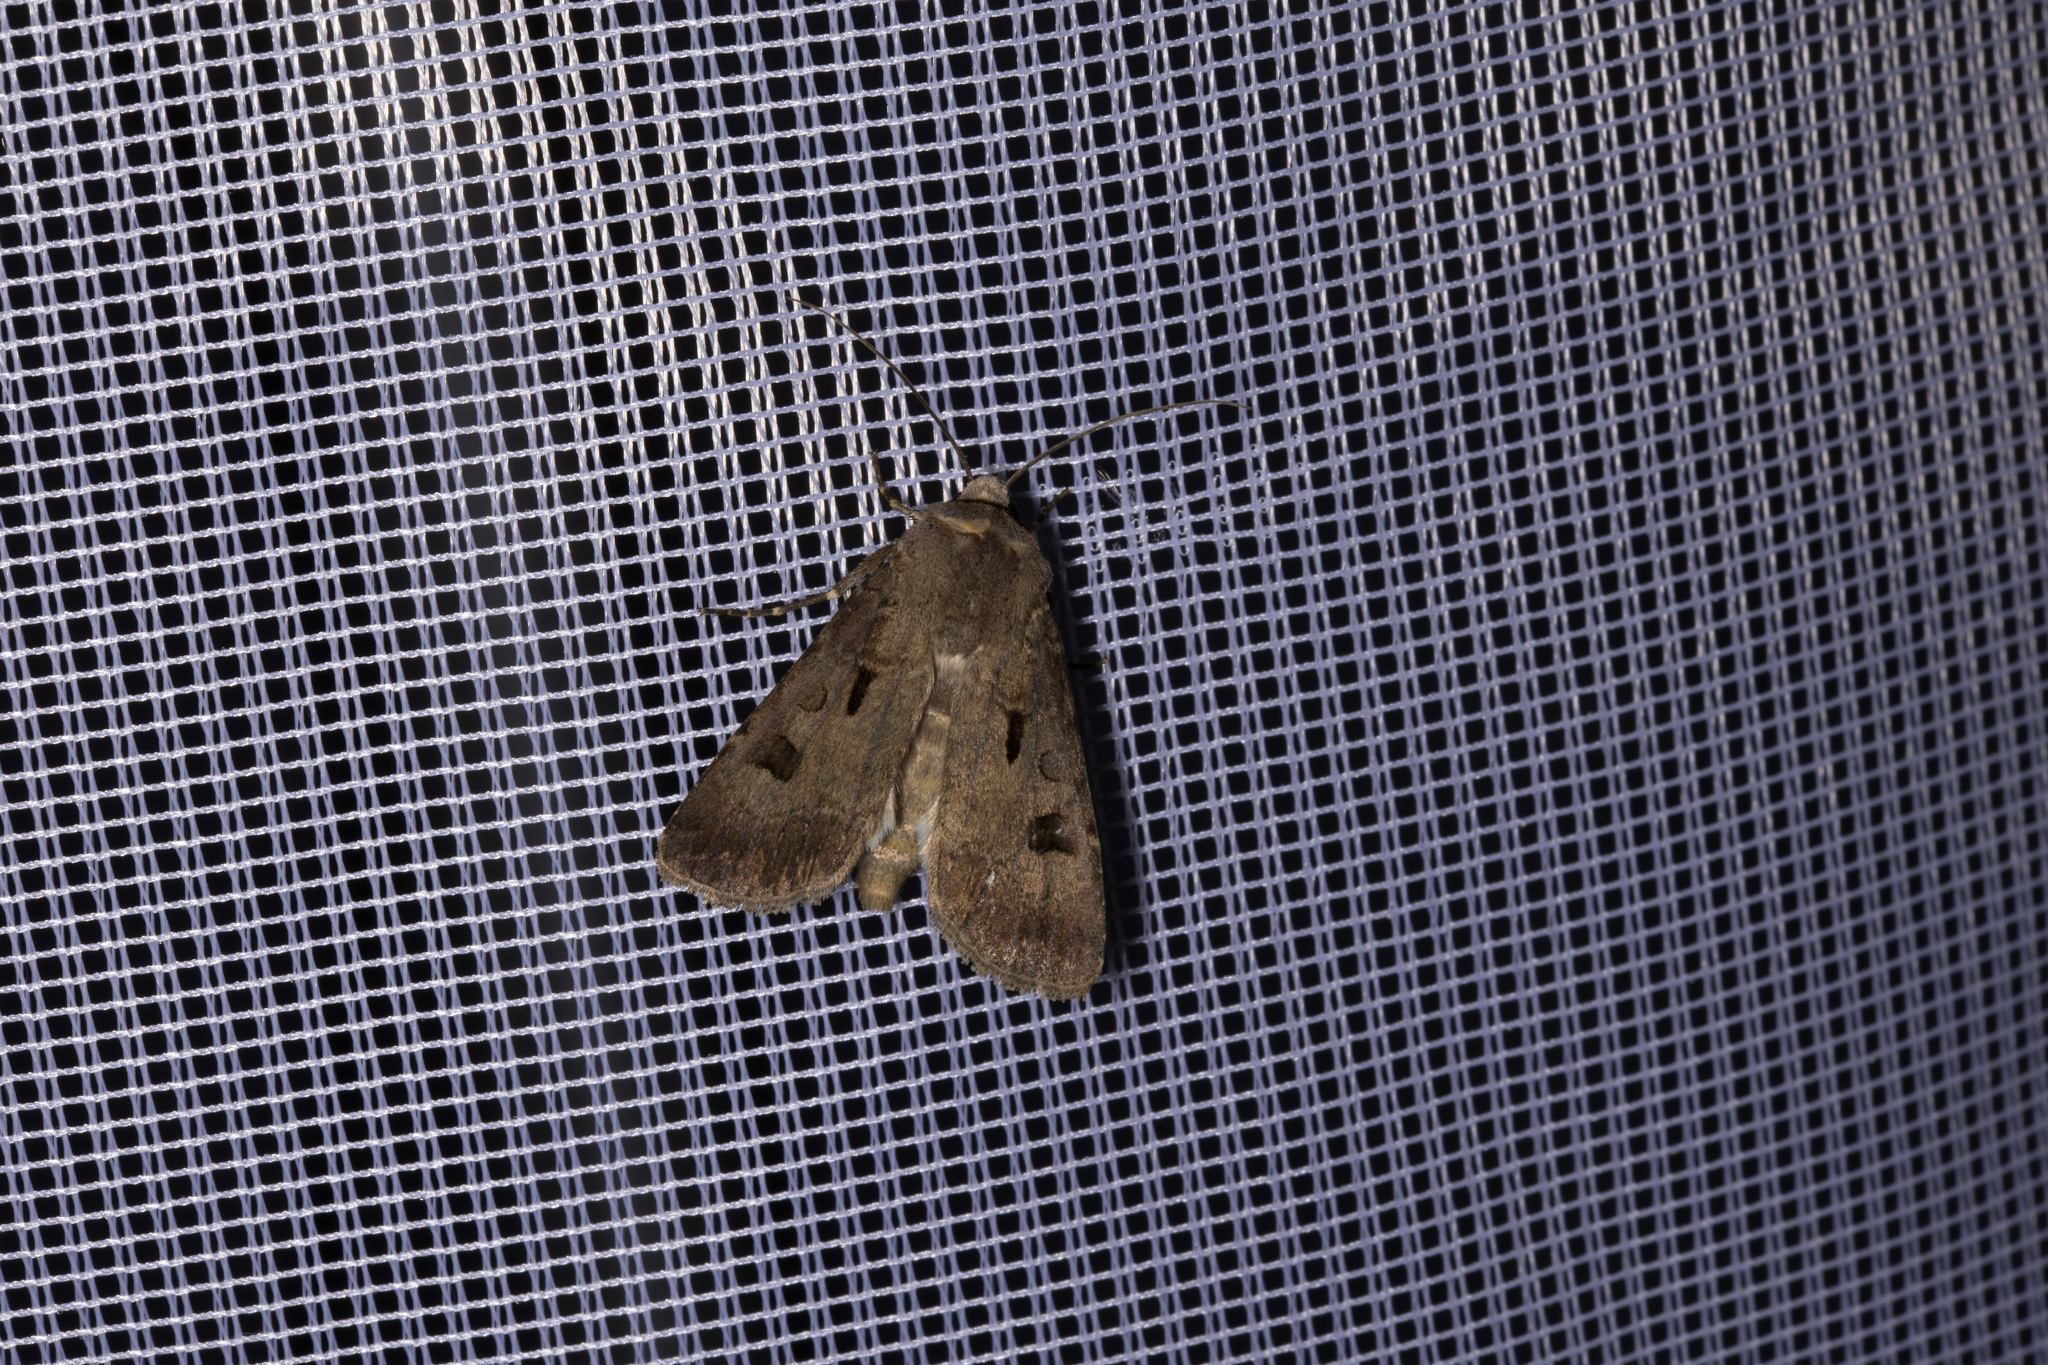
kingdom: Animalia
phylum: Arthropoda
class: Insecta
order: Lepidoptera
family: Noctuidae
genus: Agrotis
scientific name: Agrotis exclamationis
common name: Heart and dart
